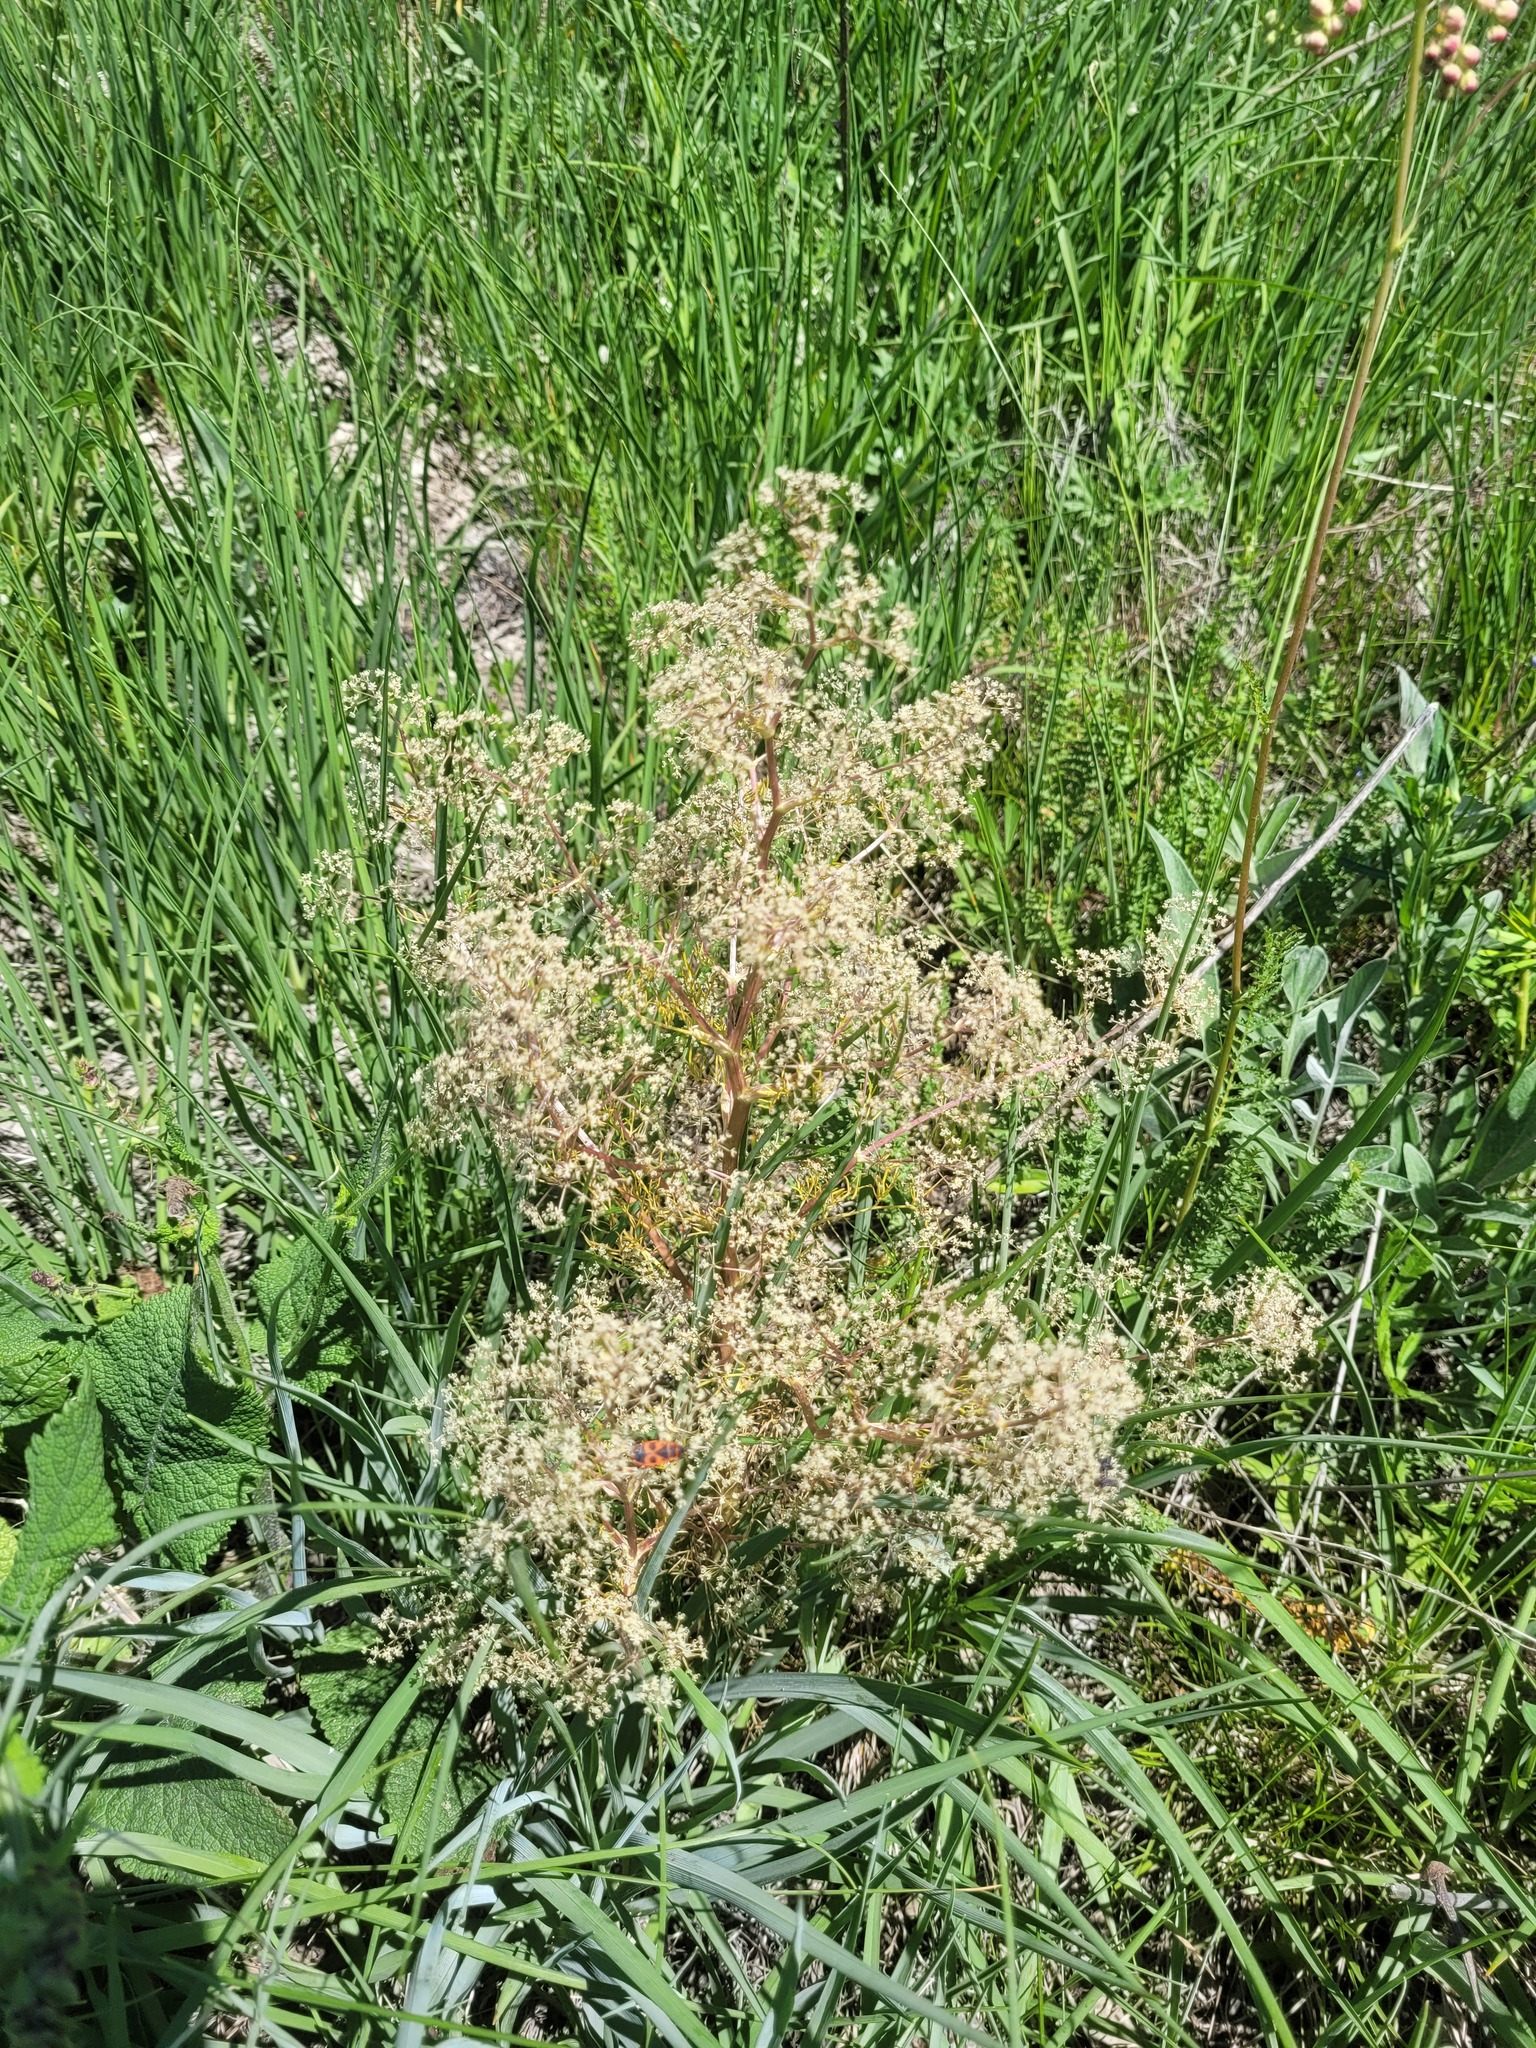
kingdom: Plantae
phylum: Tracheophyta
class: Magnoliopsida
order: Apiales
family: Apiaceae
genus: Trinia
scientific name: Trinia multicaulis
